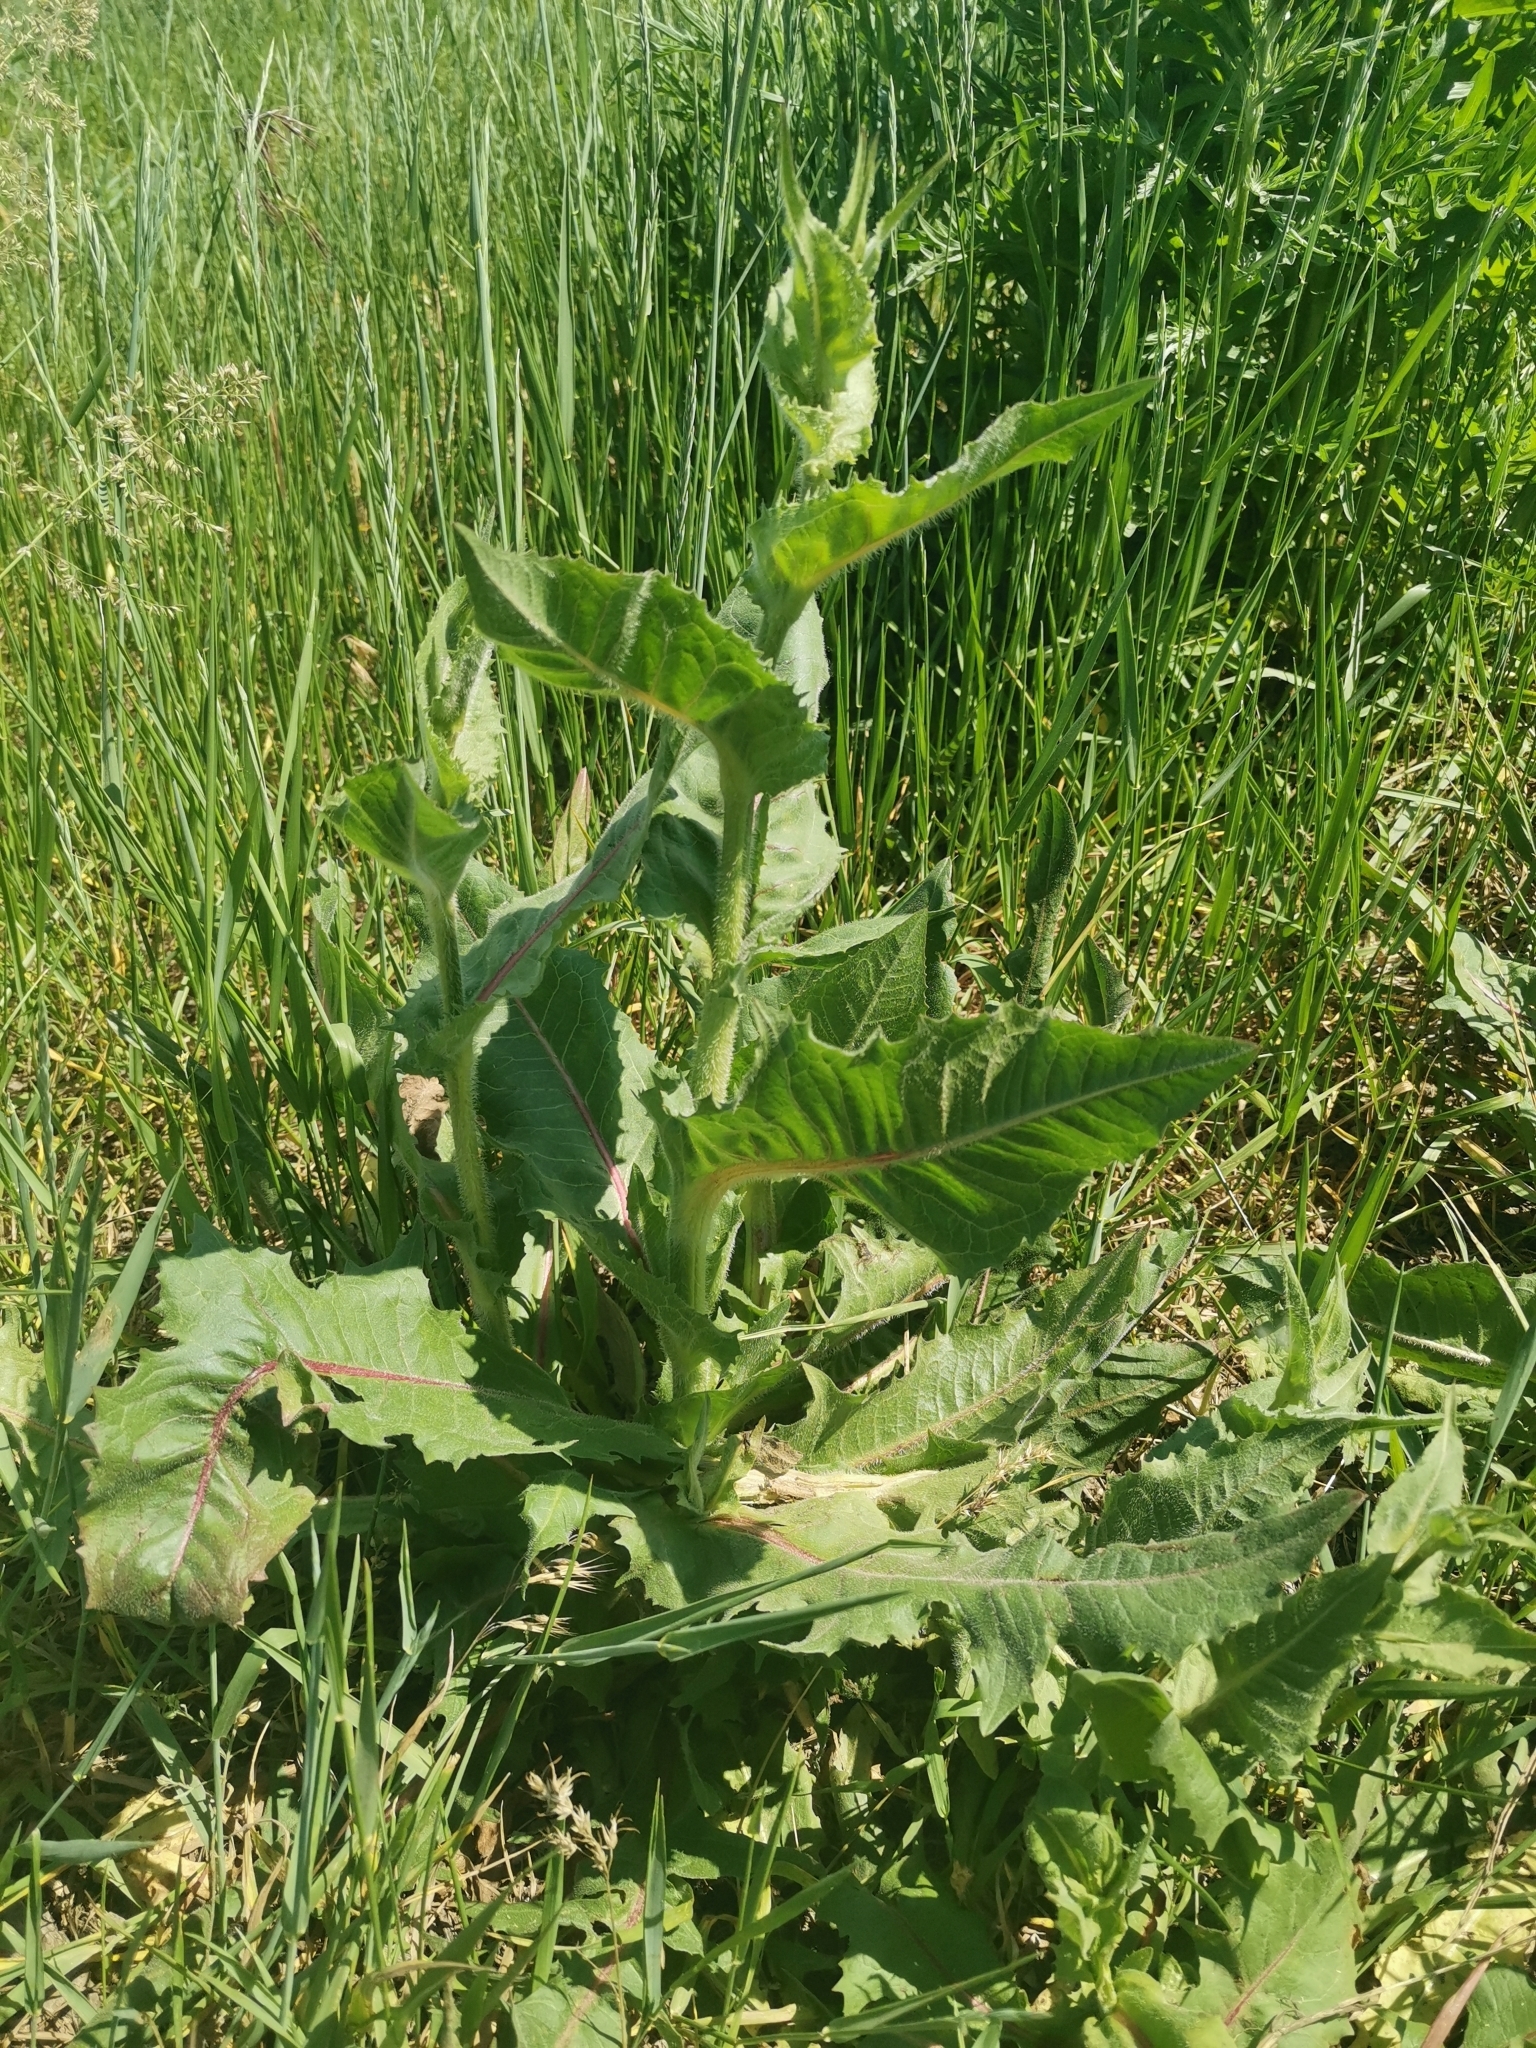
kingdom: Plantae
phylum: Tracheophyta
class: Magnoliopsida
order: Asterales
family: Asteraceae
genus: Cichorium
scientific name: Cichorium intybus
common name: Chicory
